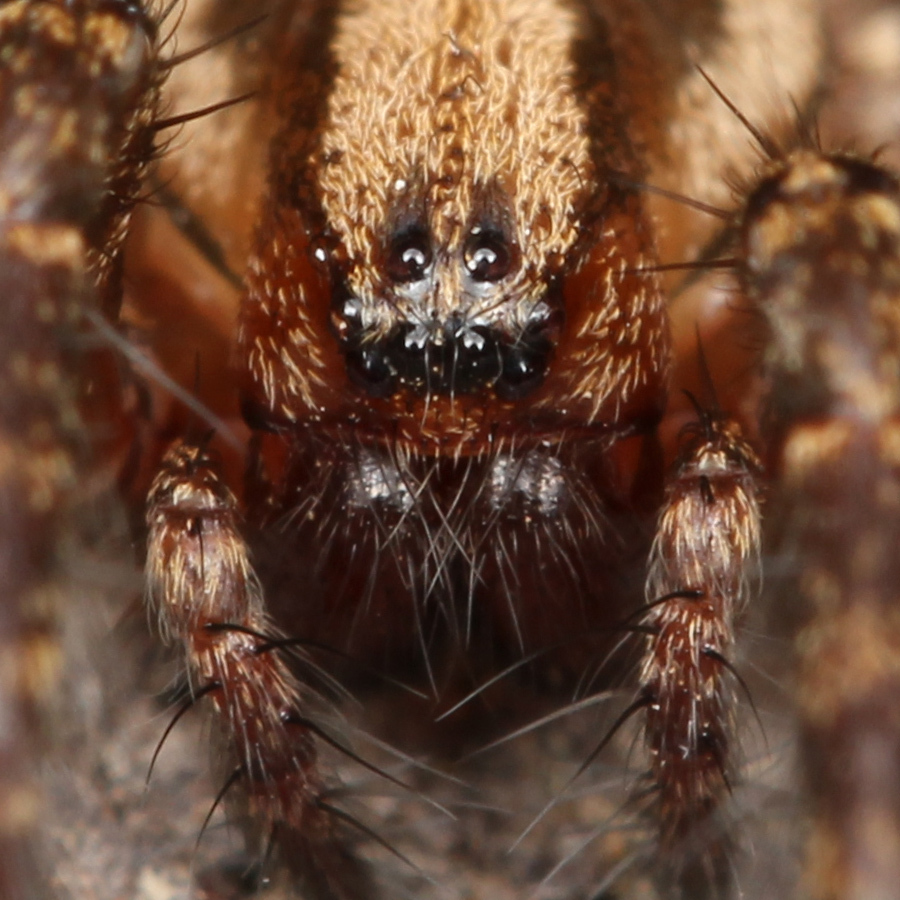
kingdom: Animalia
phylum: Arthropoda
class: Arachnida
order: Araneae
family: Agelenidae
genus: Hololena
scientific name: Hololena
